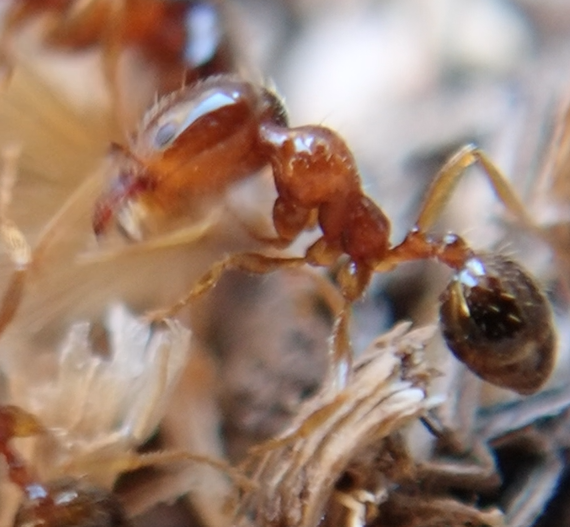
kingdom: Animalia
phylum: Arthropoda
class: Insecta
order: Hymenoptera
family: Formicidae
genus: Monomorium
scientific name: Monomorium perplexum
